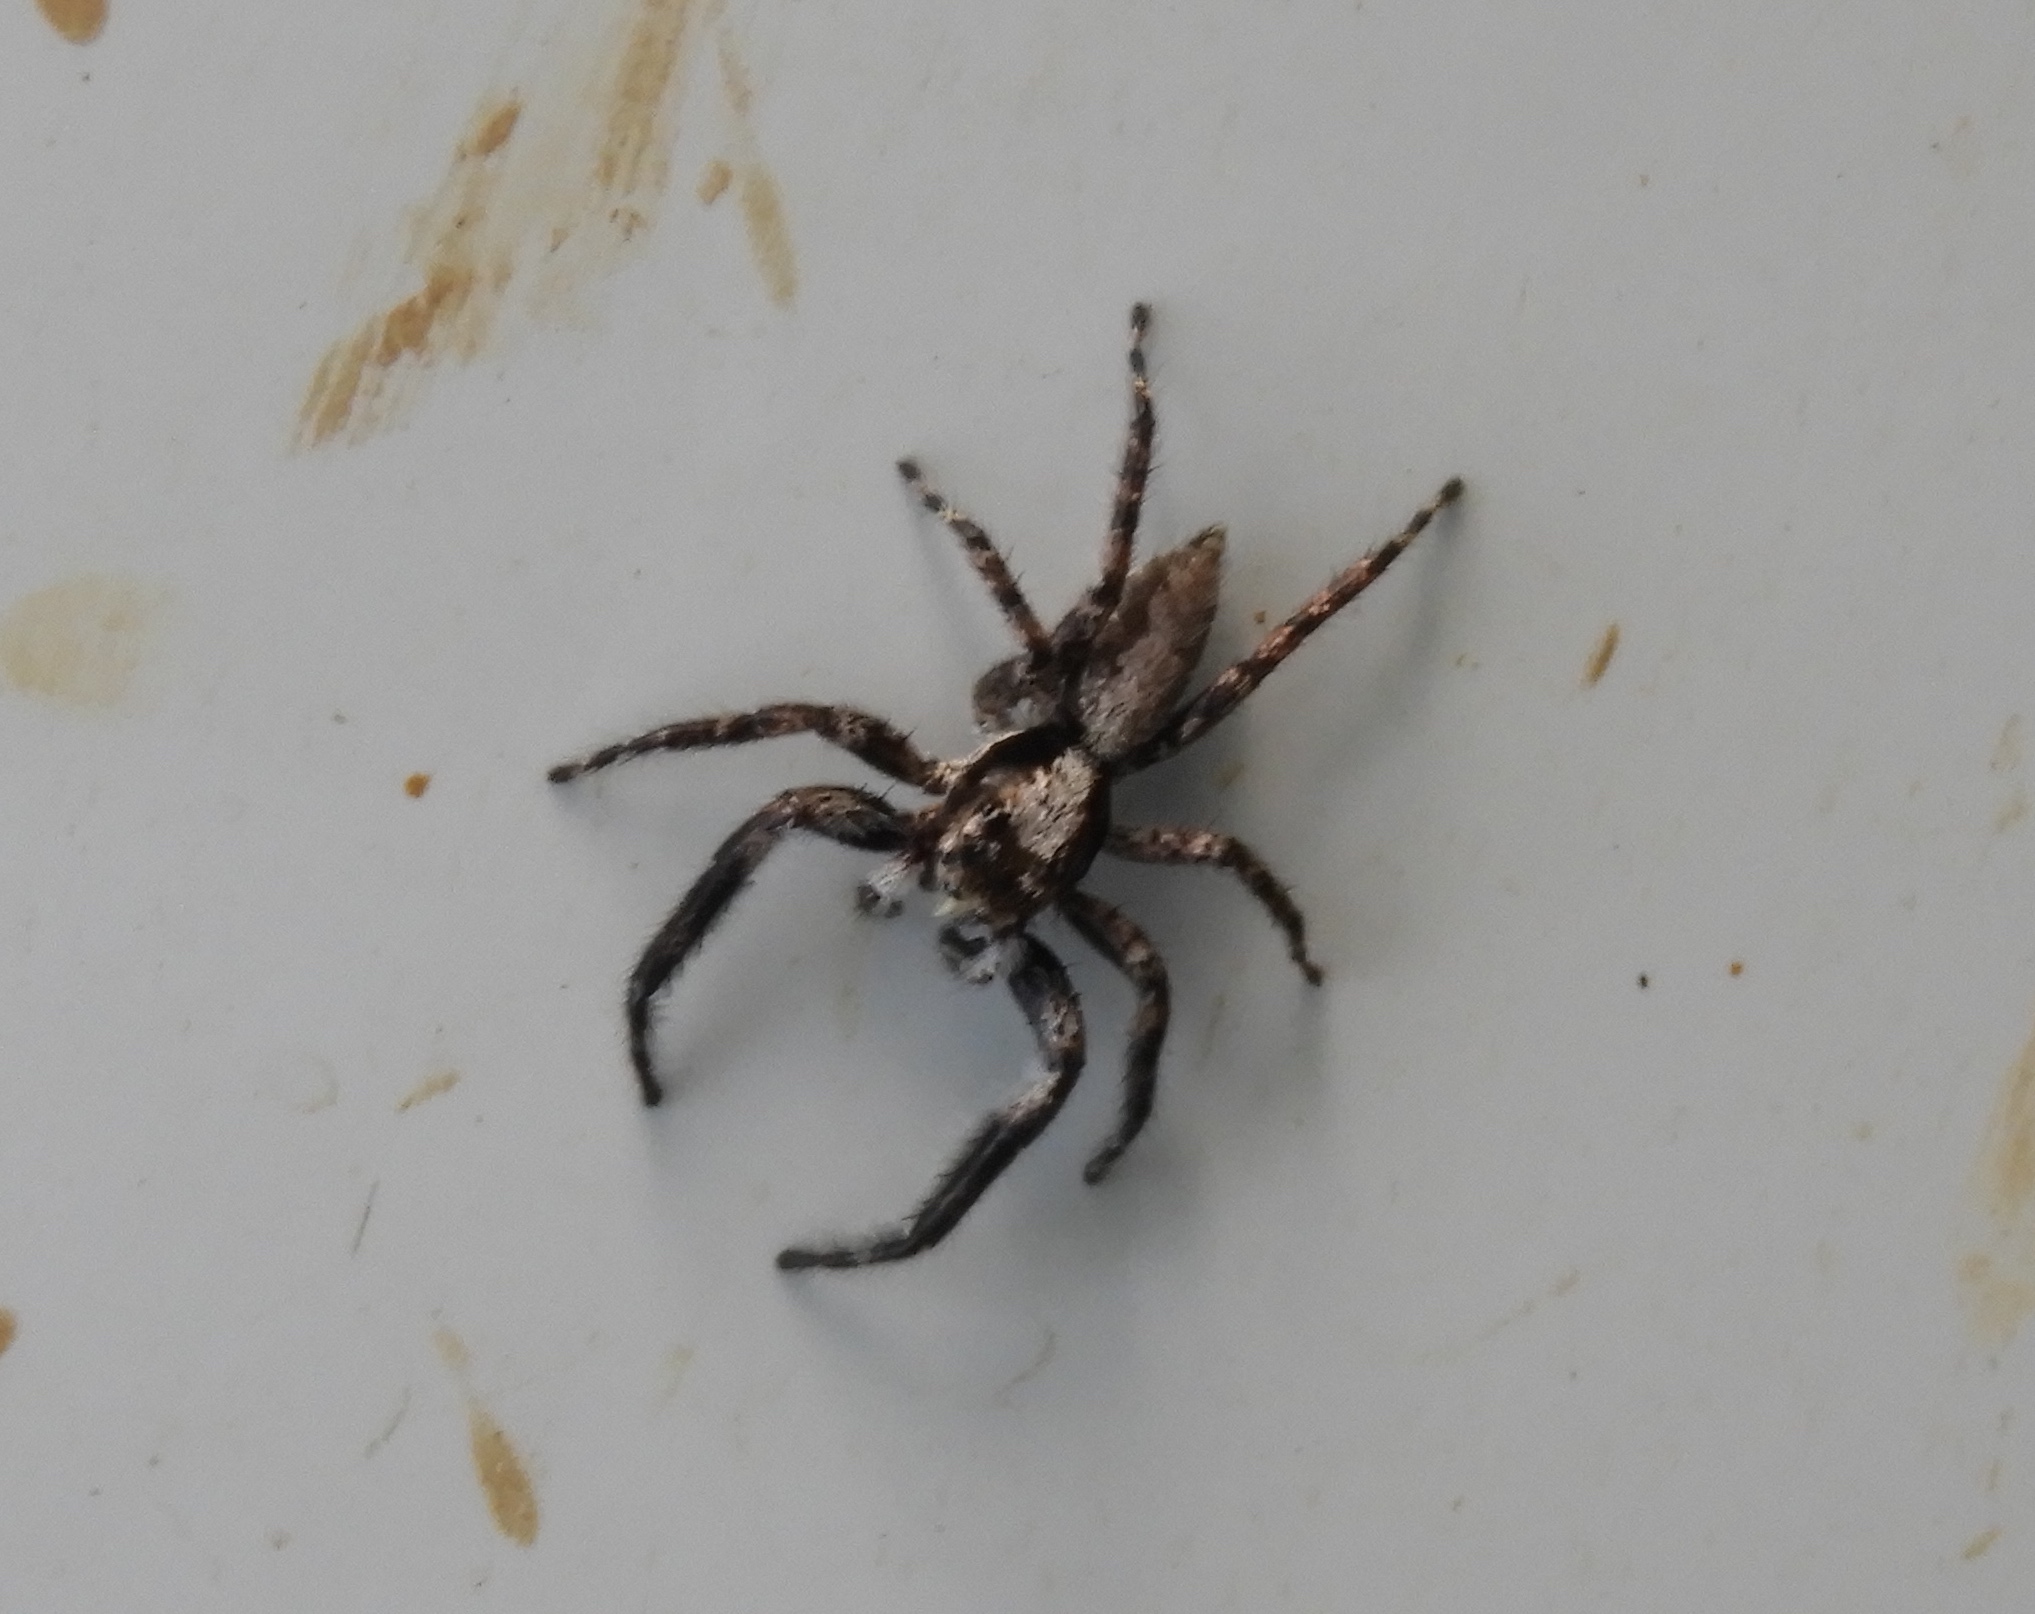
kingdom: Animalia
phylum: Arthropoda
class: Arachnida
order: Araneae
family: Salticidae
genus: Balmaceda
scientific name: Balmaceda
